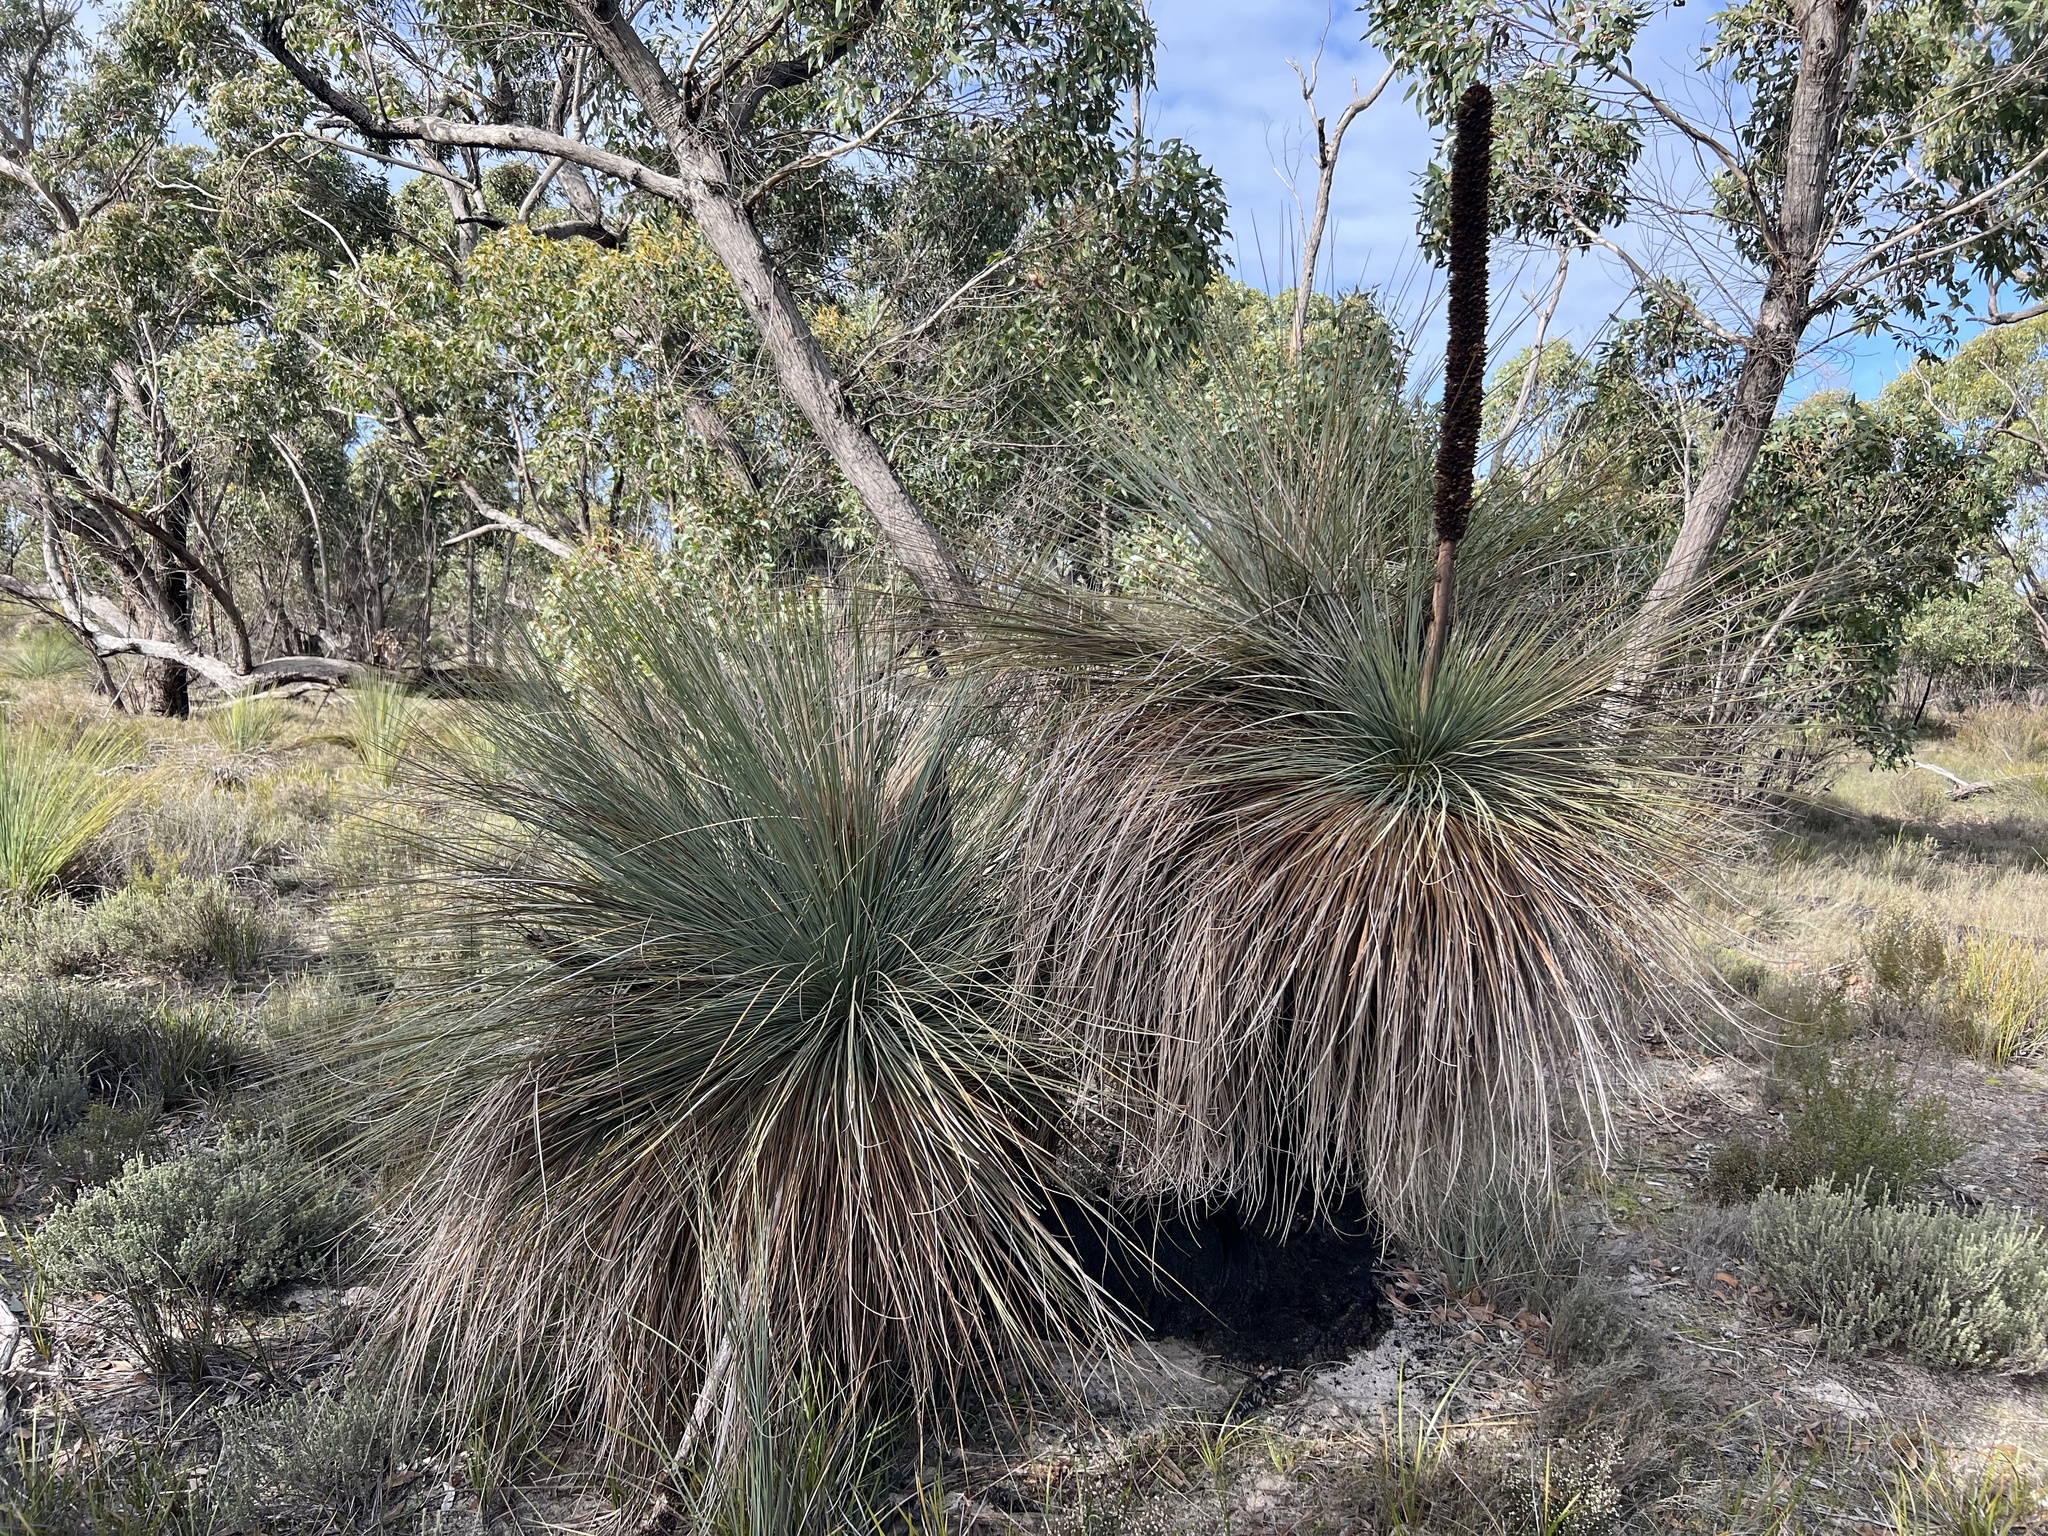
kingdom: Plantae
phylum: Tracheophyta
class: Liliopsida
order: Asparagales
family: Asphodelaceae
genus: Xanthorrhoea
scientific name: Xanthorrhoea australis
